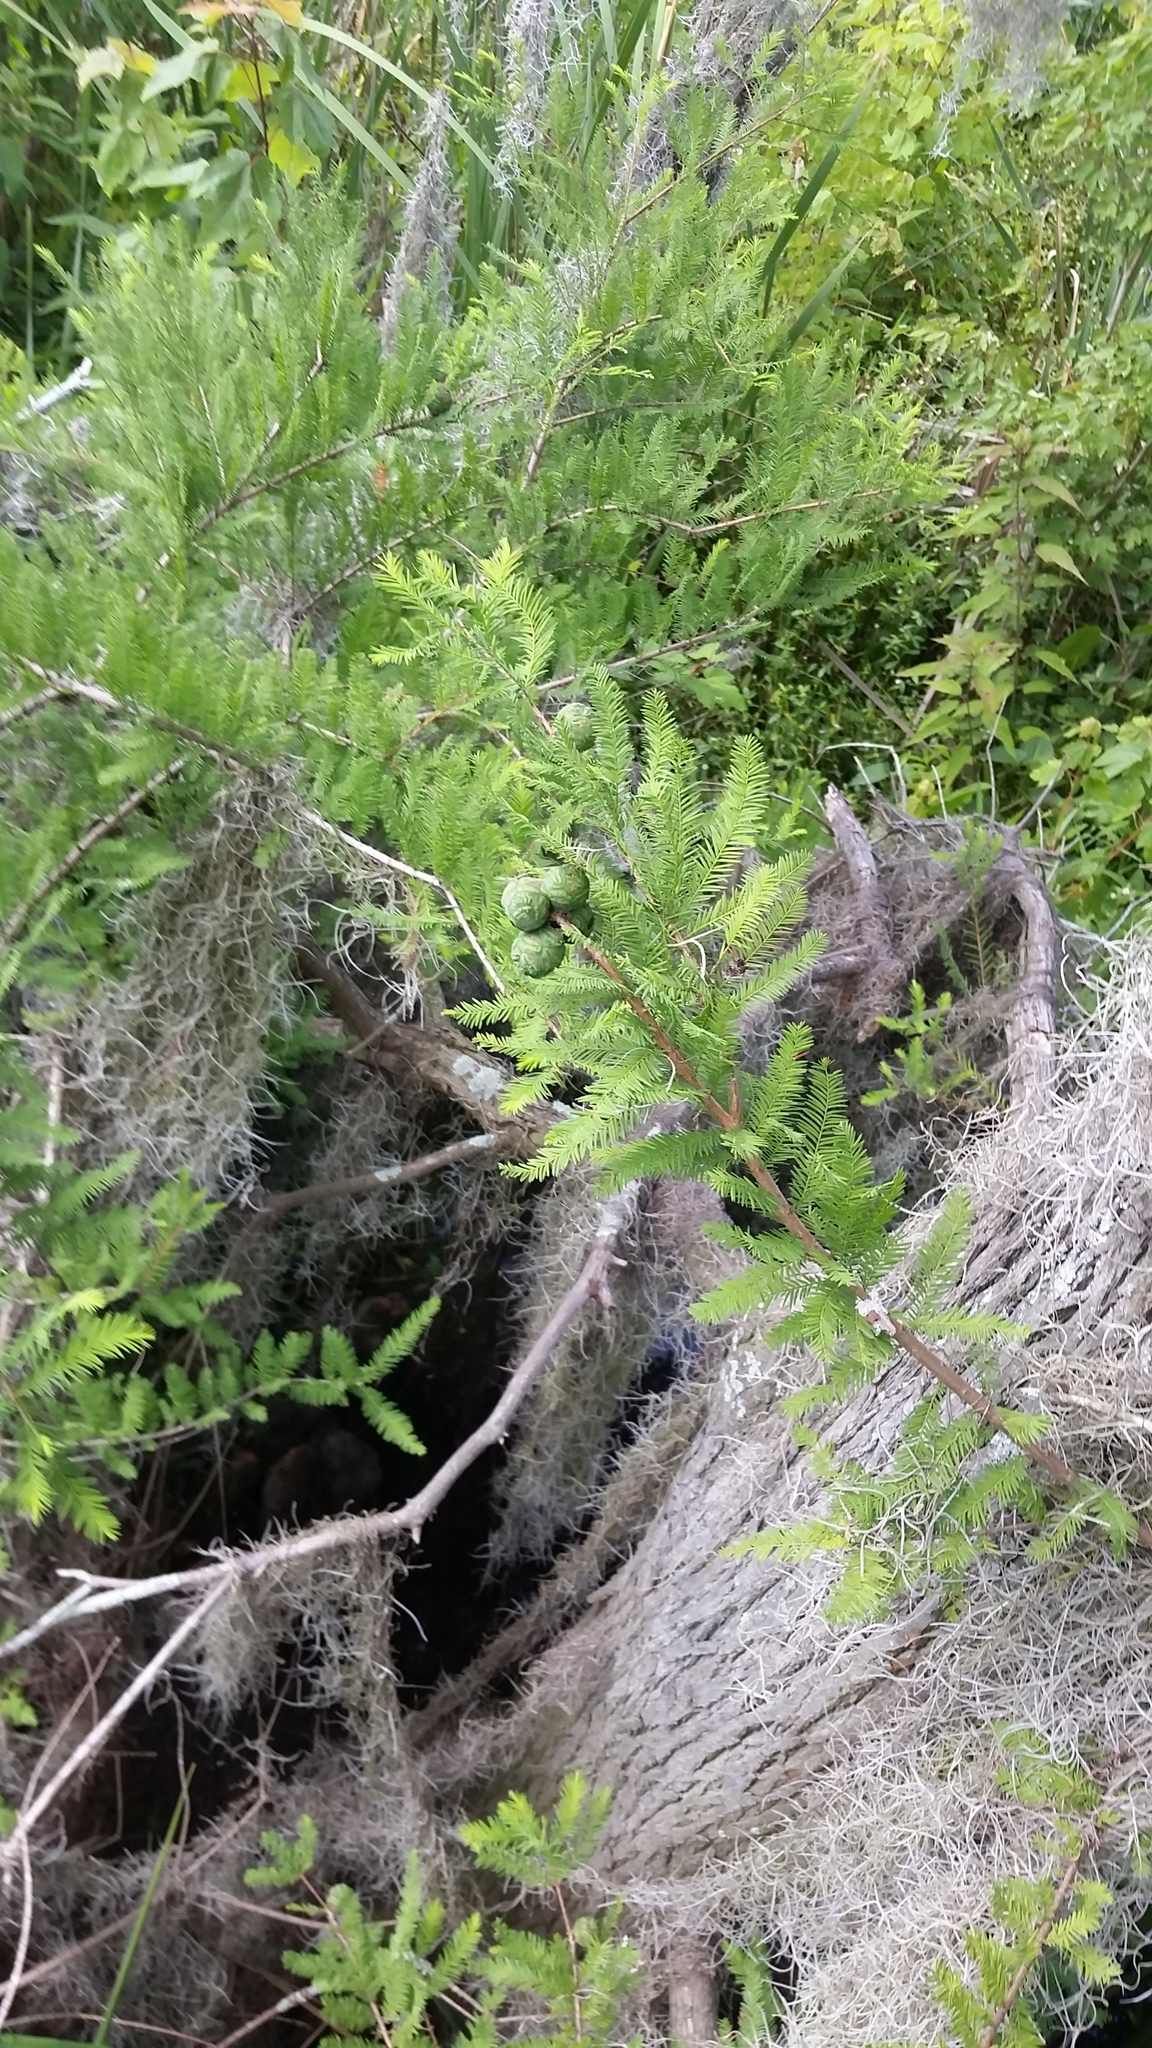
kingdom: Plantae
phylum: Tracheophyta
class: Pinopsida
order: Pinales
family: Cupressaceae
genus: Taxodium
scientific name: Taxodium distichum
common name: Bald cypress
